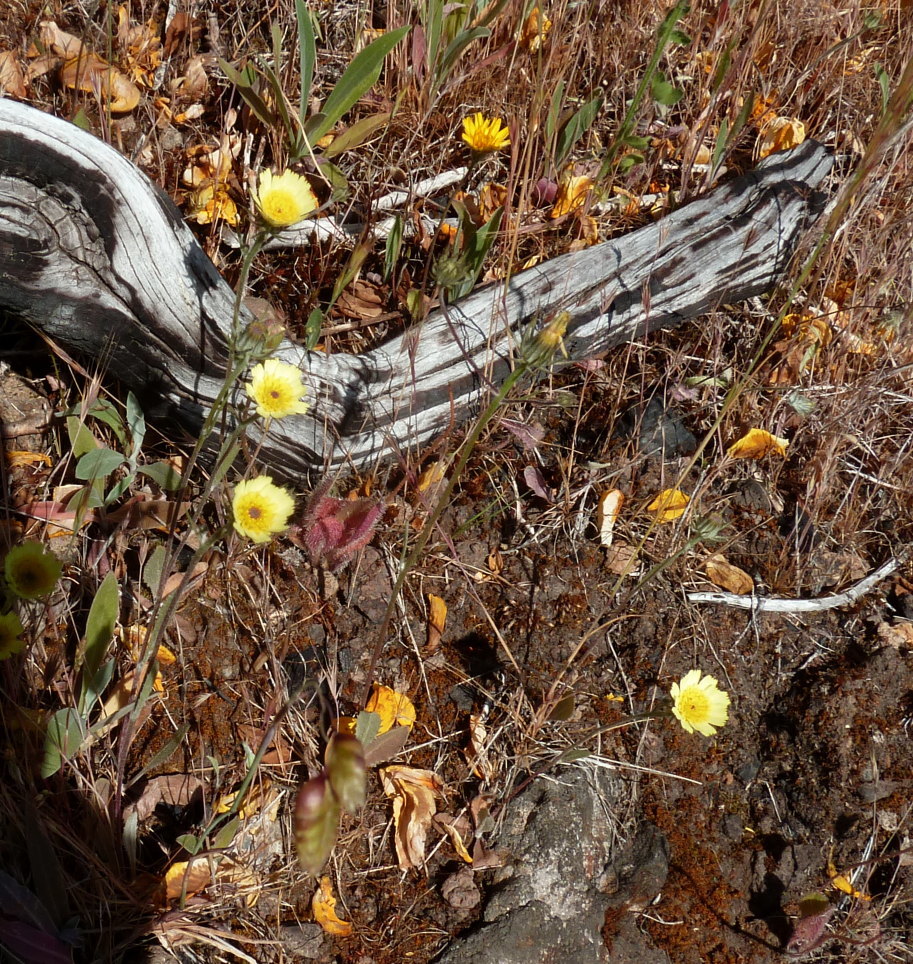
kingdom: Plantae
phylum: Tracheophyta
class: Magnoliopsida
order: Asterales
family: Asteraceae
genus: Tolpis
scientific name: Tolpis barbata
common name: Yellow hawkweed
